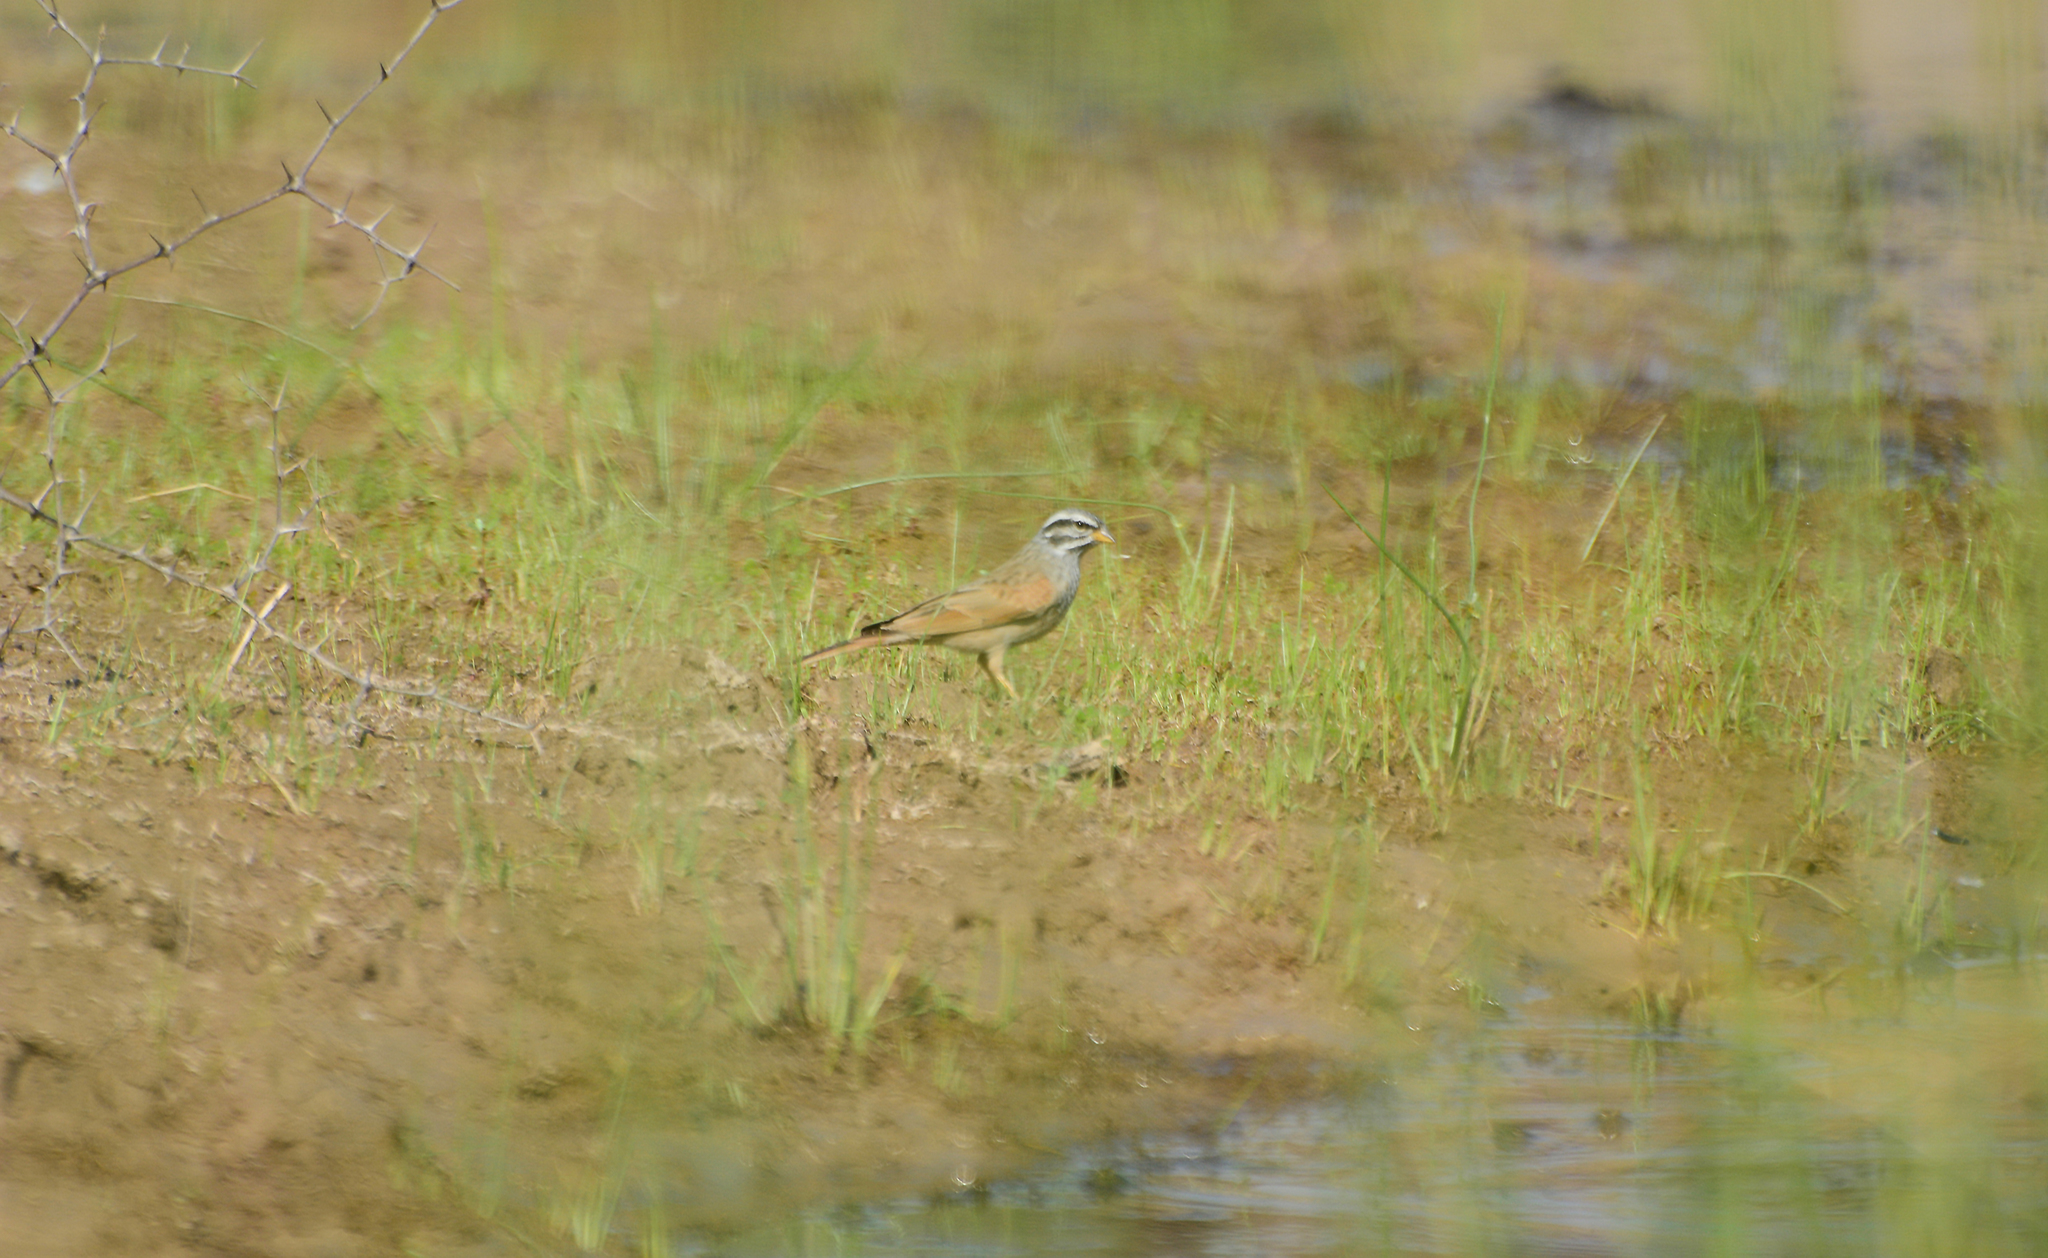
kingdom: Animalia
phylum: Chordata
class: Aves
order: Passeriformes
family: Emberizidae
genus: Emberiza
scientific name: Emberiza striolata
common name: Striolated bunting
